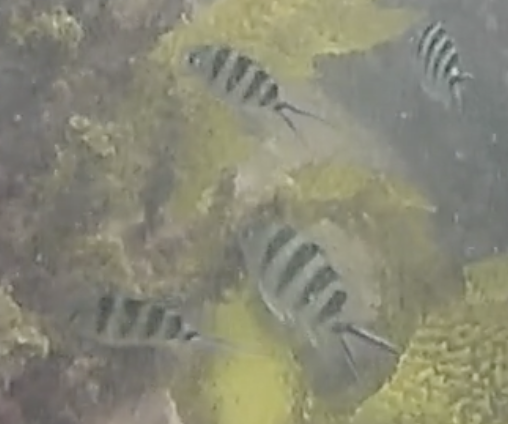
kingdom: Animalia
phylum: Chordata
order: Perciformes
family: Pomacentridae
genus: Abudefduf
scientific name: Abudefduf sexfasciatus
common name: Scissortail sergeant
